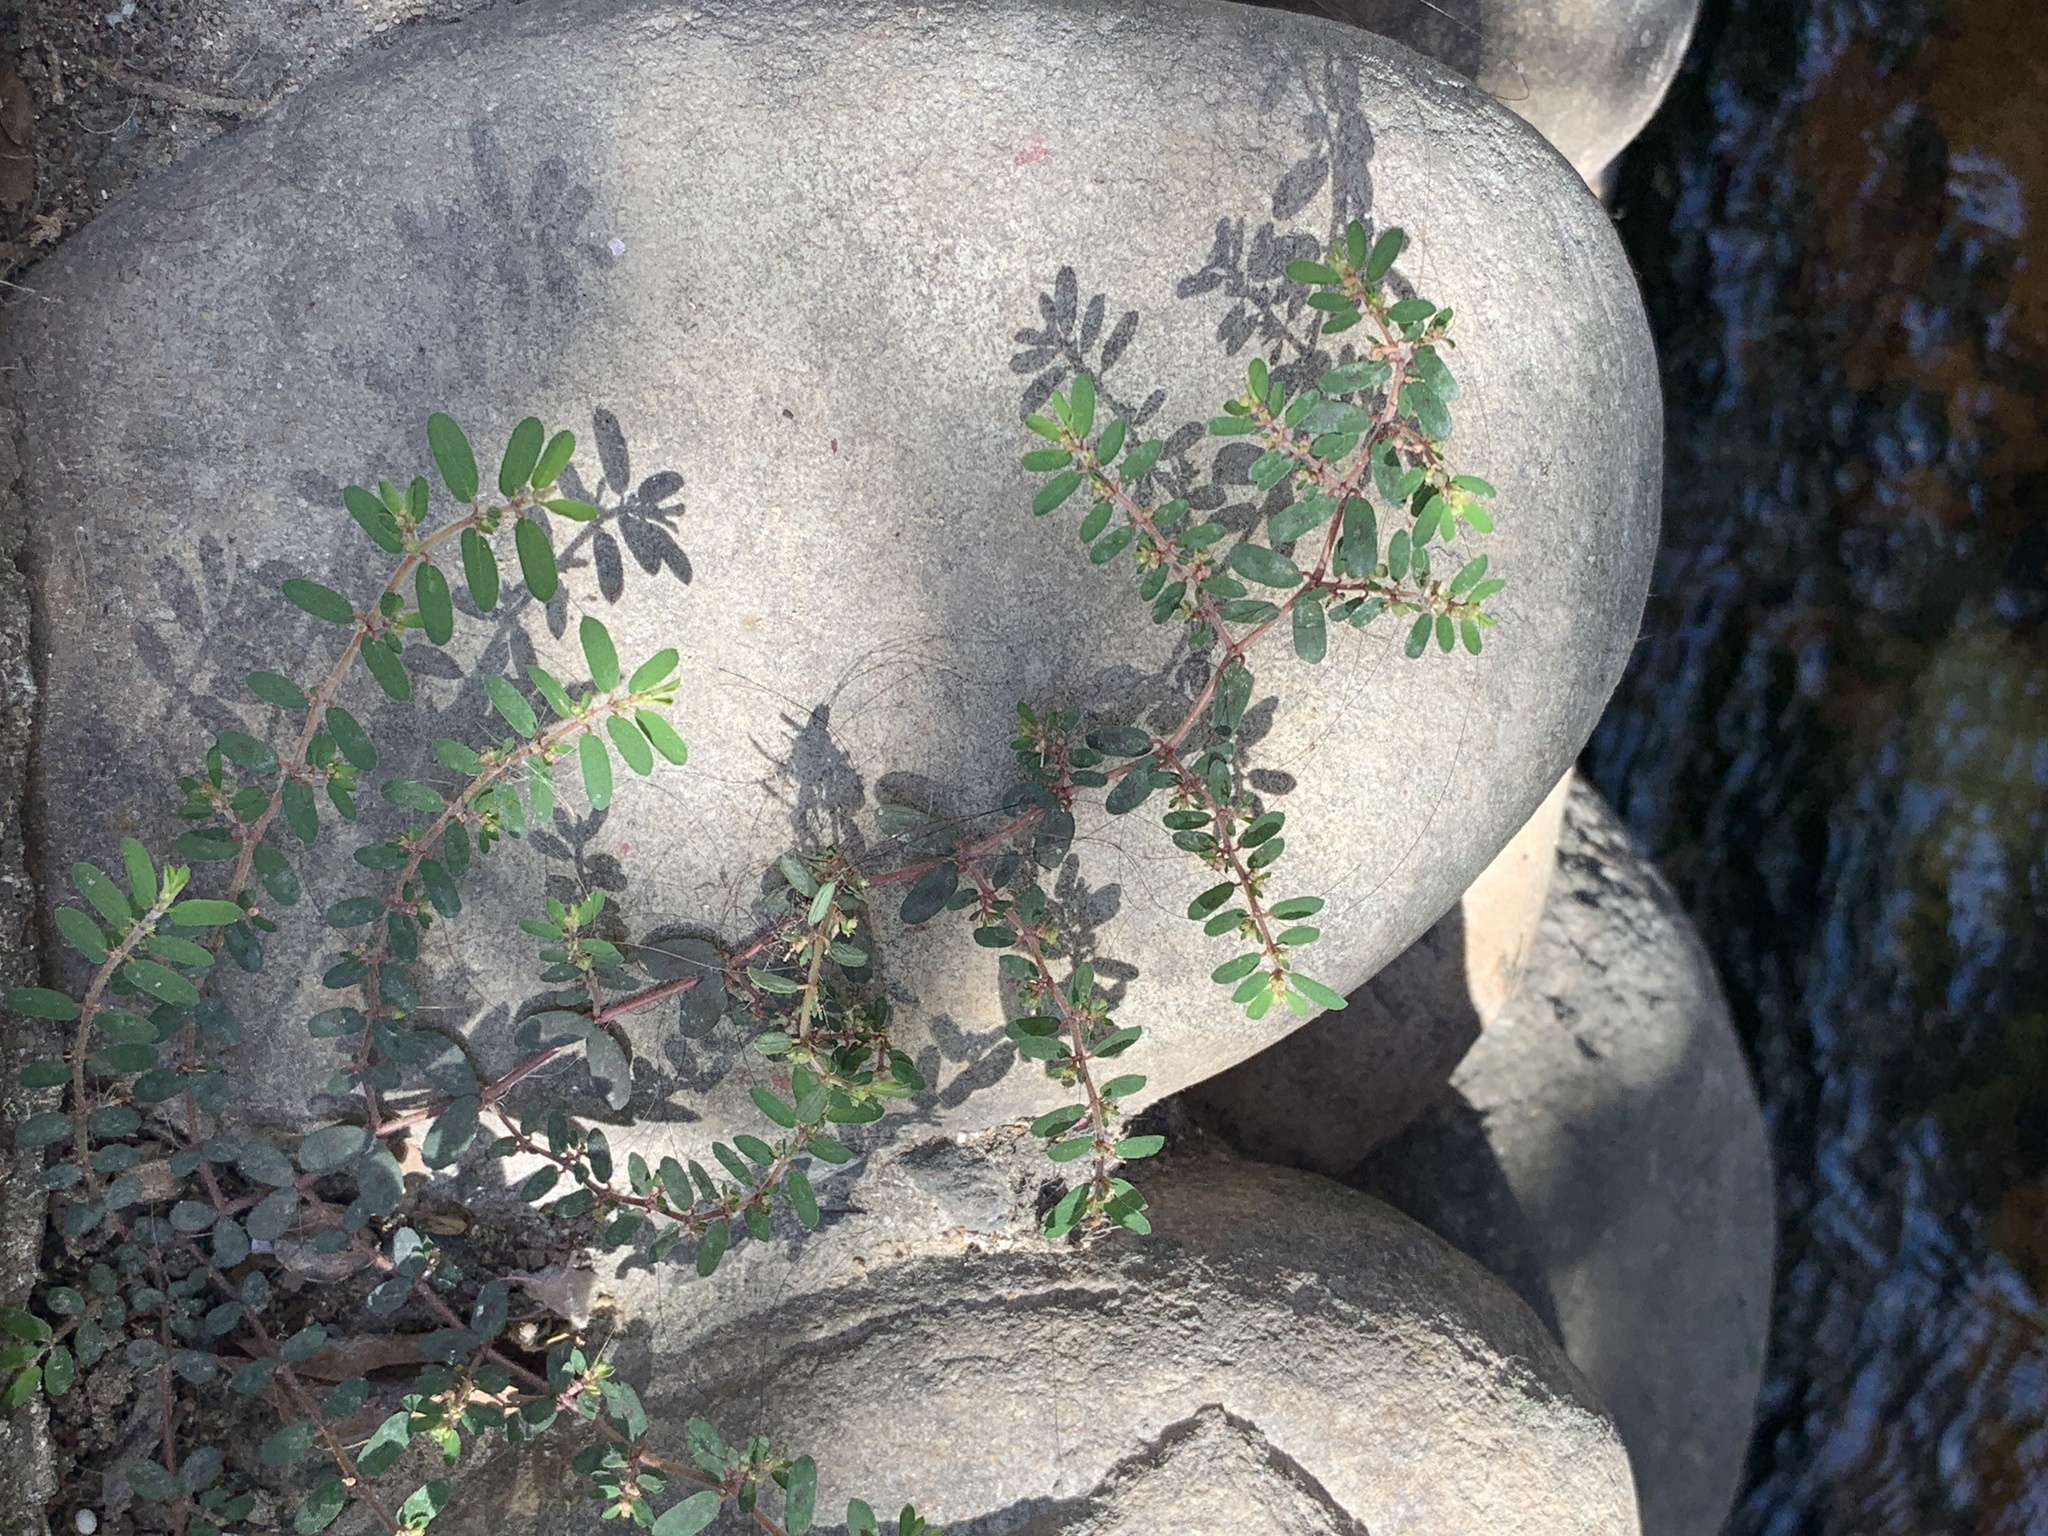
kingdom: Plantae
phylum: Tracheophyta
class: Magnoliopsida
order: Malpighiales
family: Euphorbiaceae
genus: Euphorbia
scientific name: Euphorbia maculata
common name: Spotted spurge
